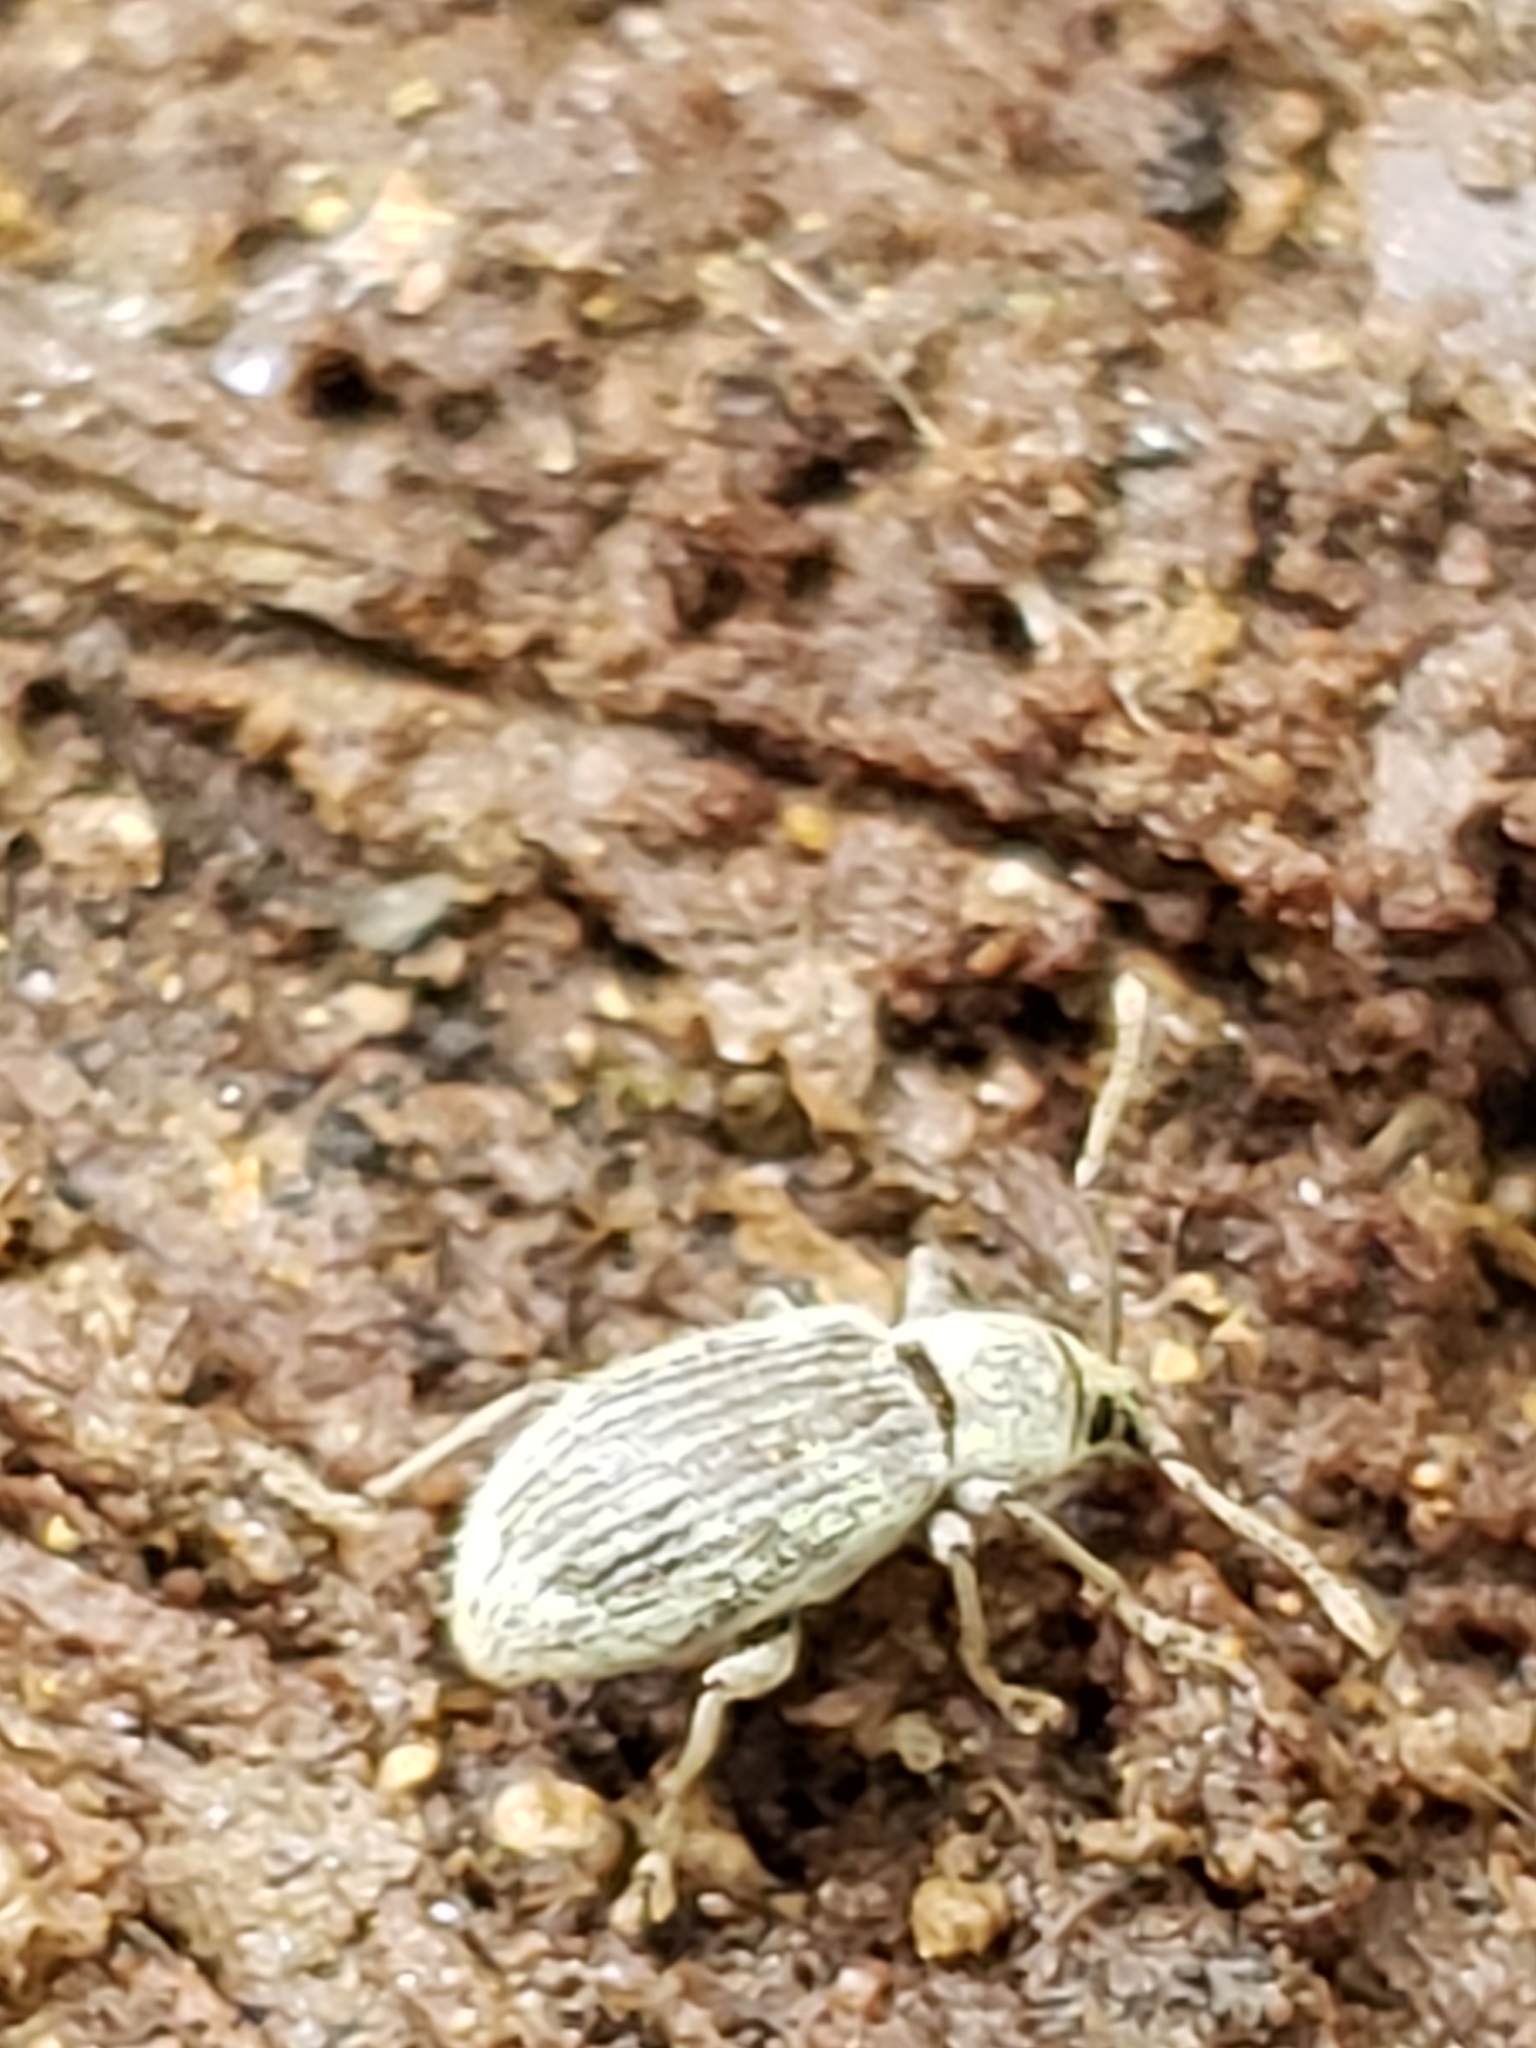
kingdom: Animalia
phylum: Arthropoda
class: Insecta
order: Coleoptera
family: Curculionidae
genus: Cyrtepistomus
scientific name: Cyrtepistomus castaneus
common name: Weevil
